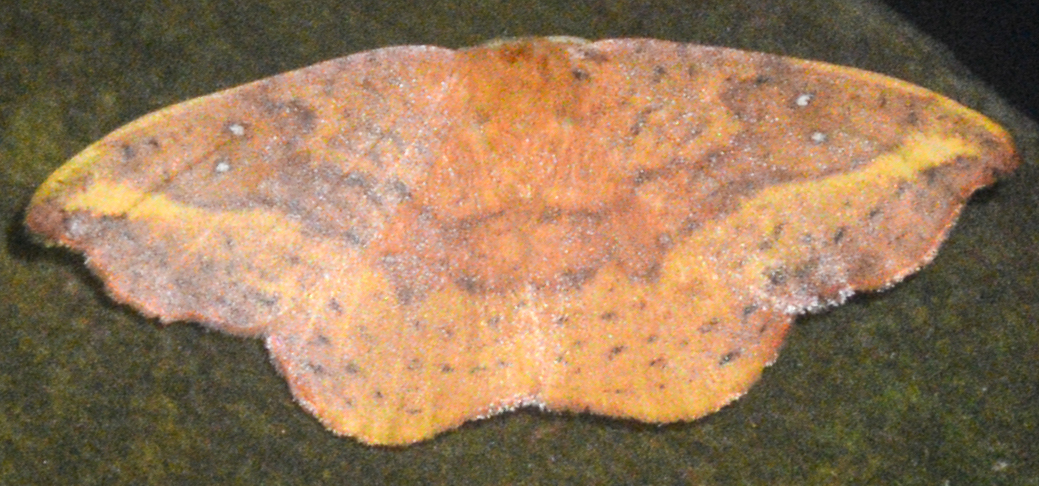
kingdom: Animalia
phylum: Arthropoda
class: Insecta
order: Lepidoptera
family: Drepanidae
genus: Oreta
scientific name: Oreta rosea
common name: Rose hooktip
